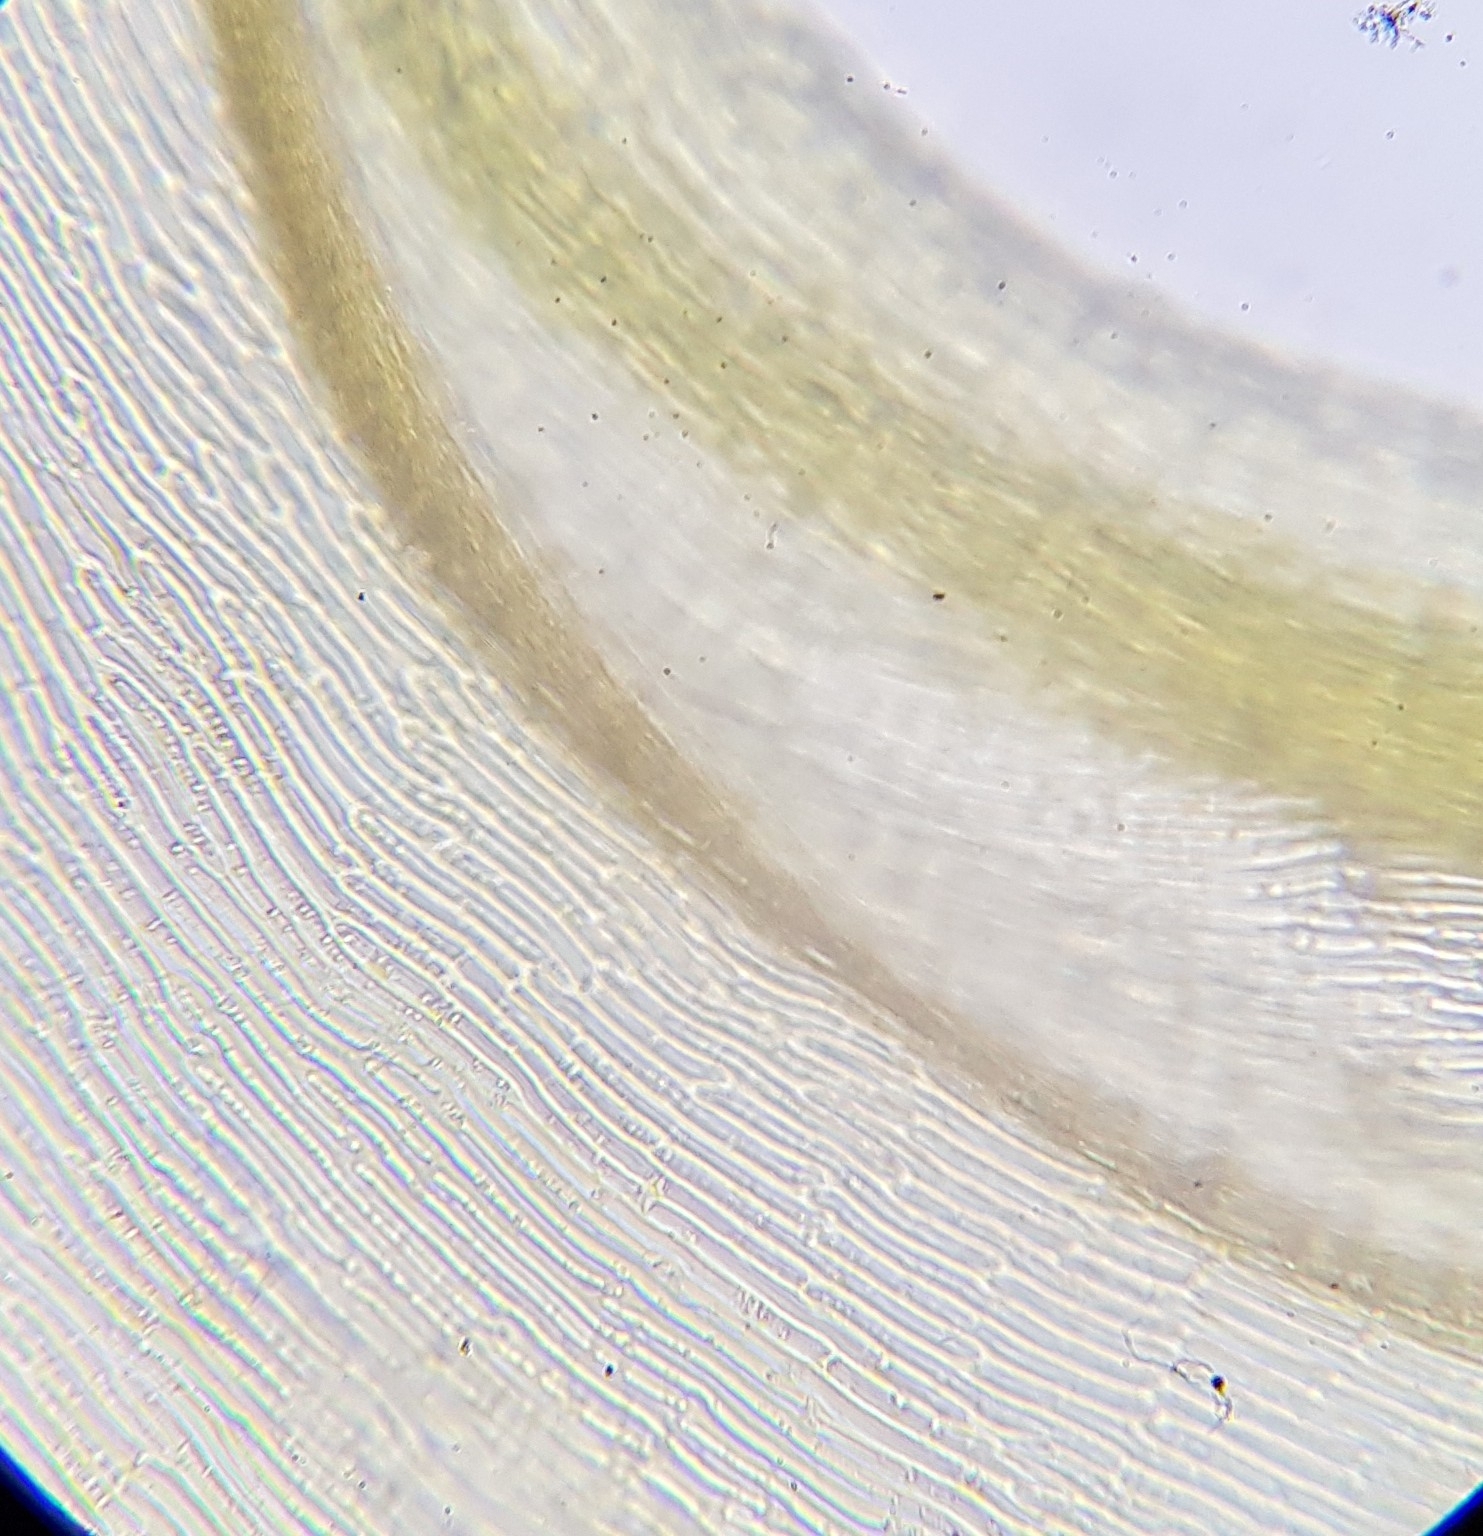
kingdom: Plantae
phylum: Bryophyta
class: Bryopsida
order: Hypnales
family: Amblystegiaceae
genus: Palustriella
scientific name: Palustriella commutata
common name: Curled hook-moss
